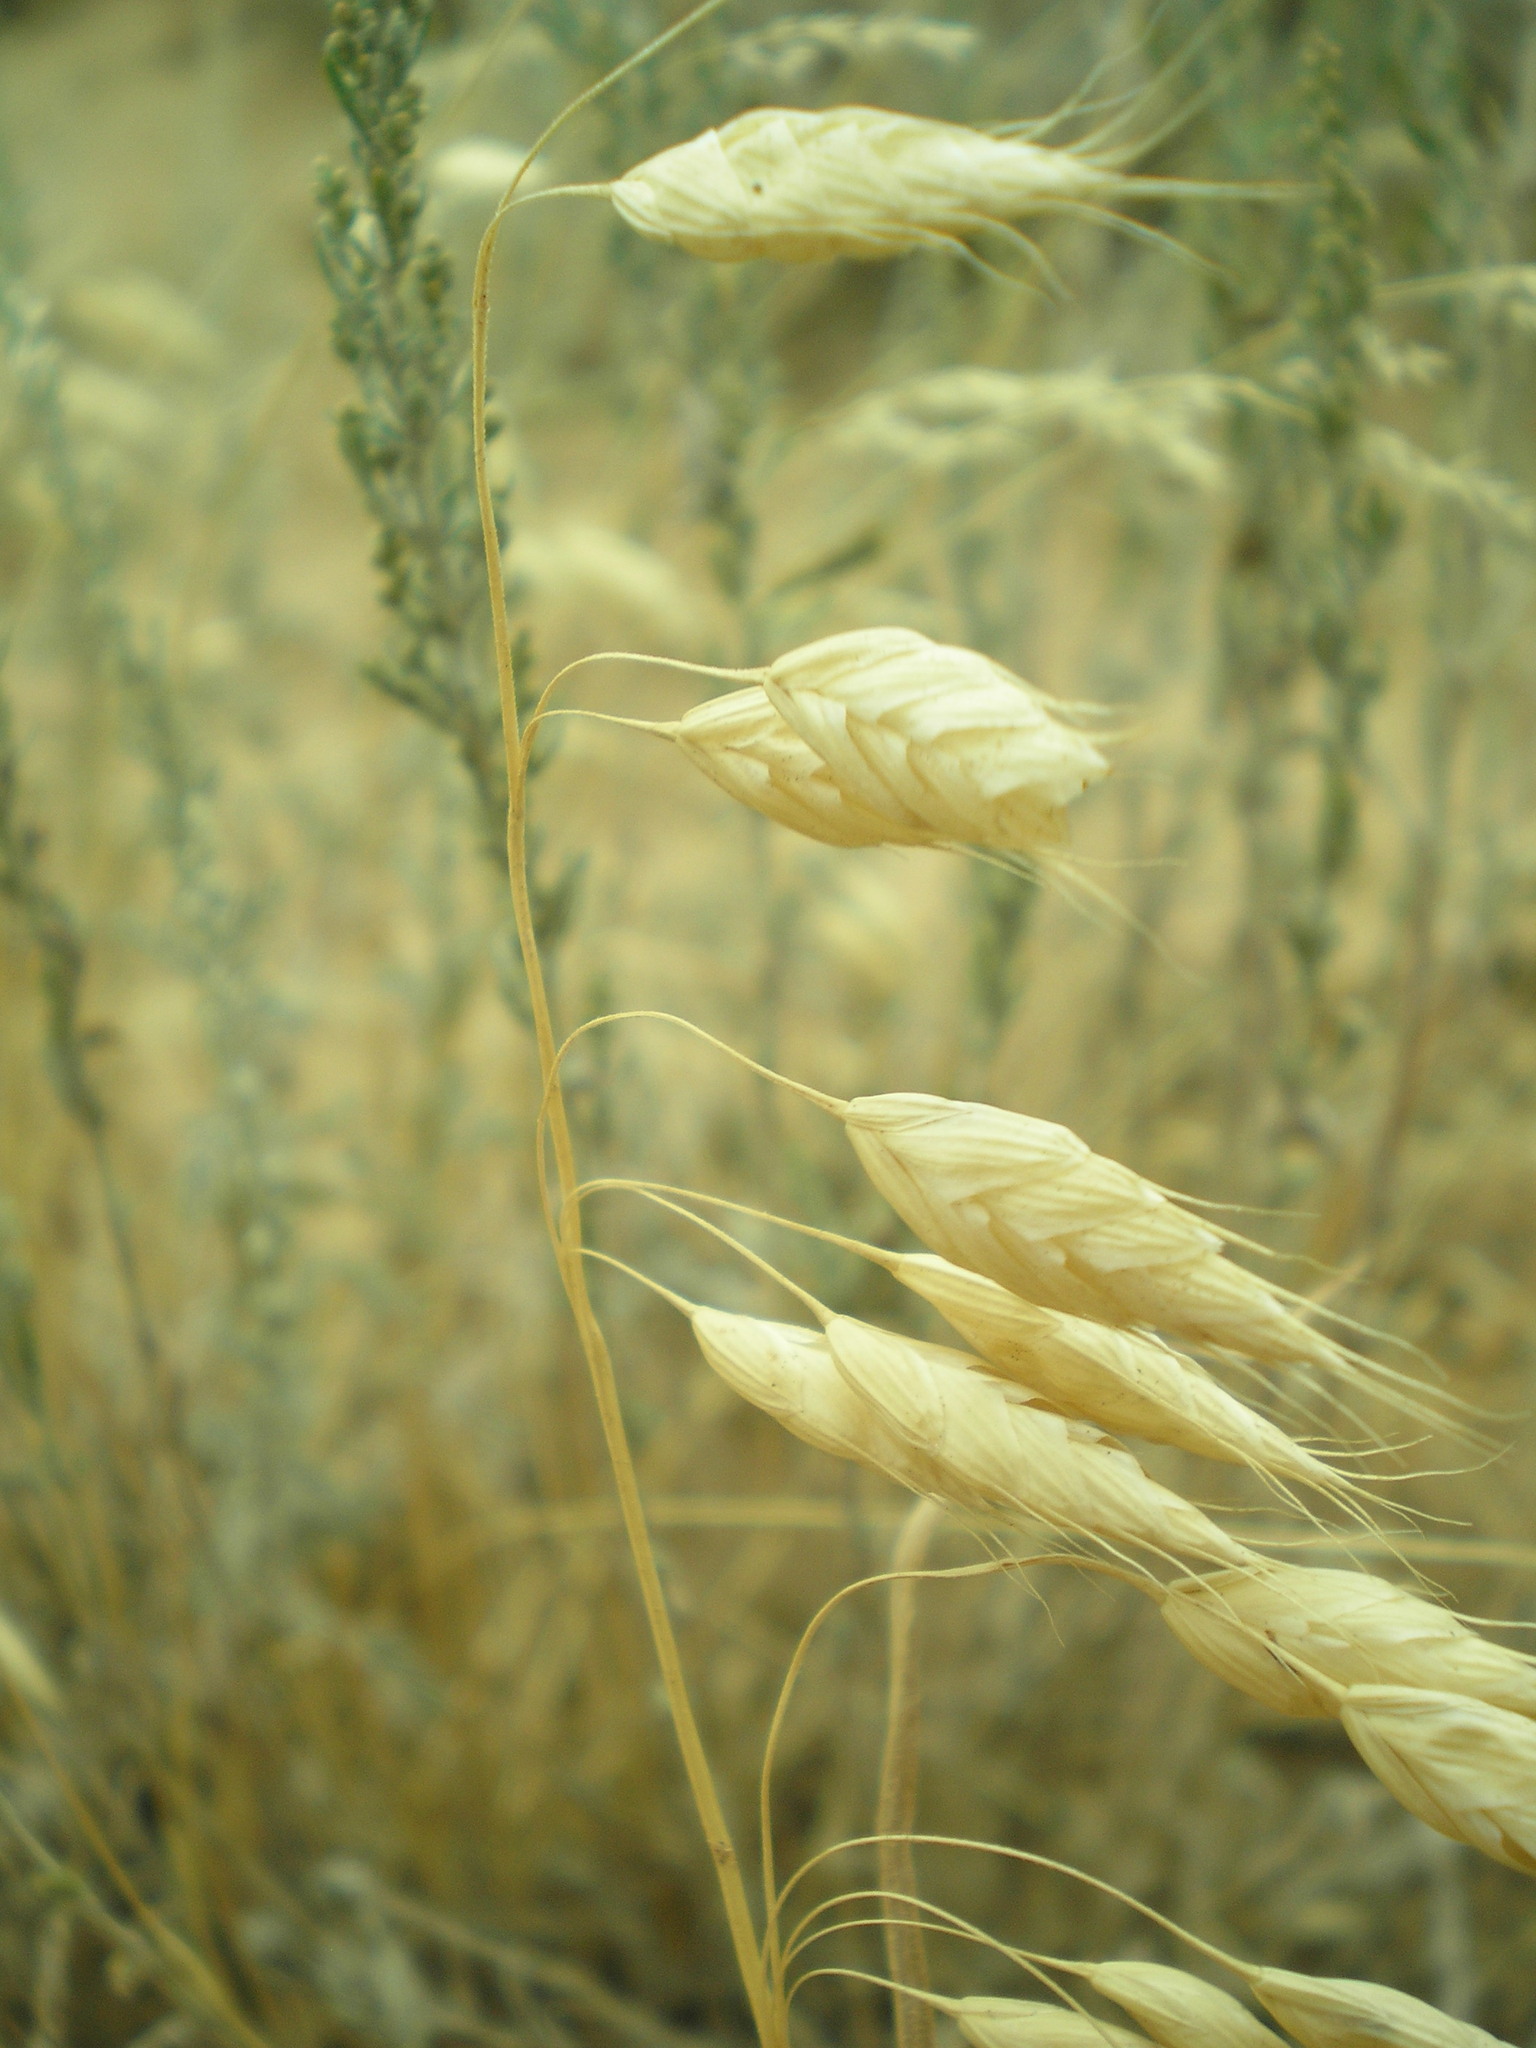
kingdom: Plantae
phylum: Tracheophyta
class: Liliopsida
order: Poales
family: Poaceae
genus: Bromus
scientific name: Bromus squarrosus
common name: Corn brome
